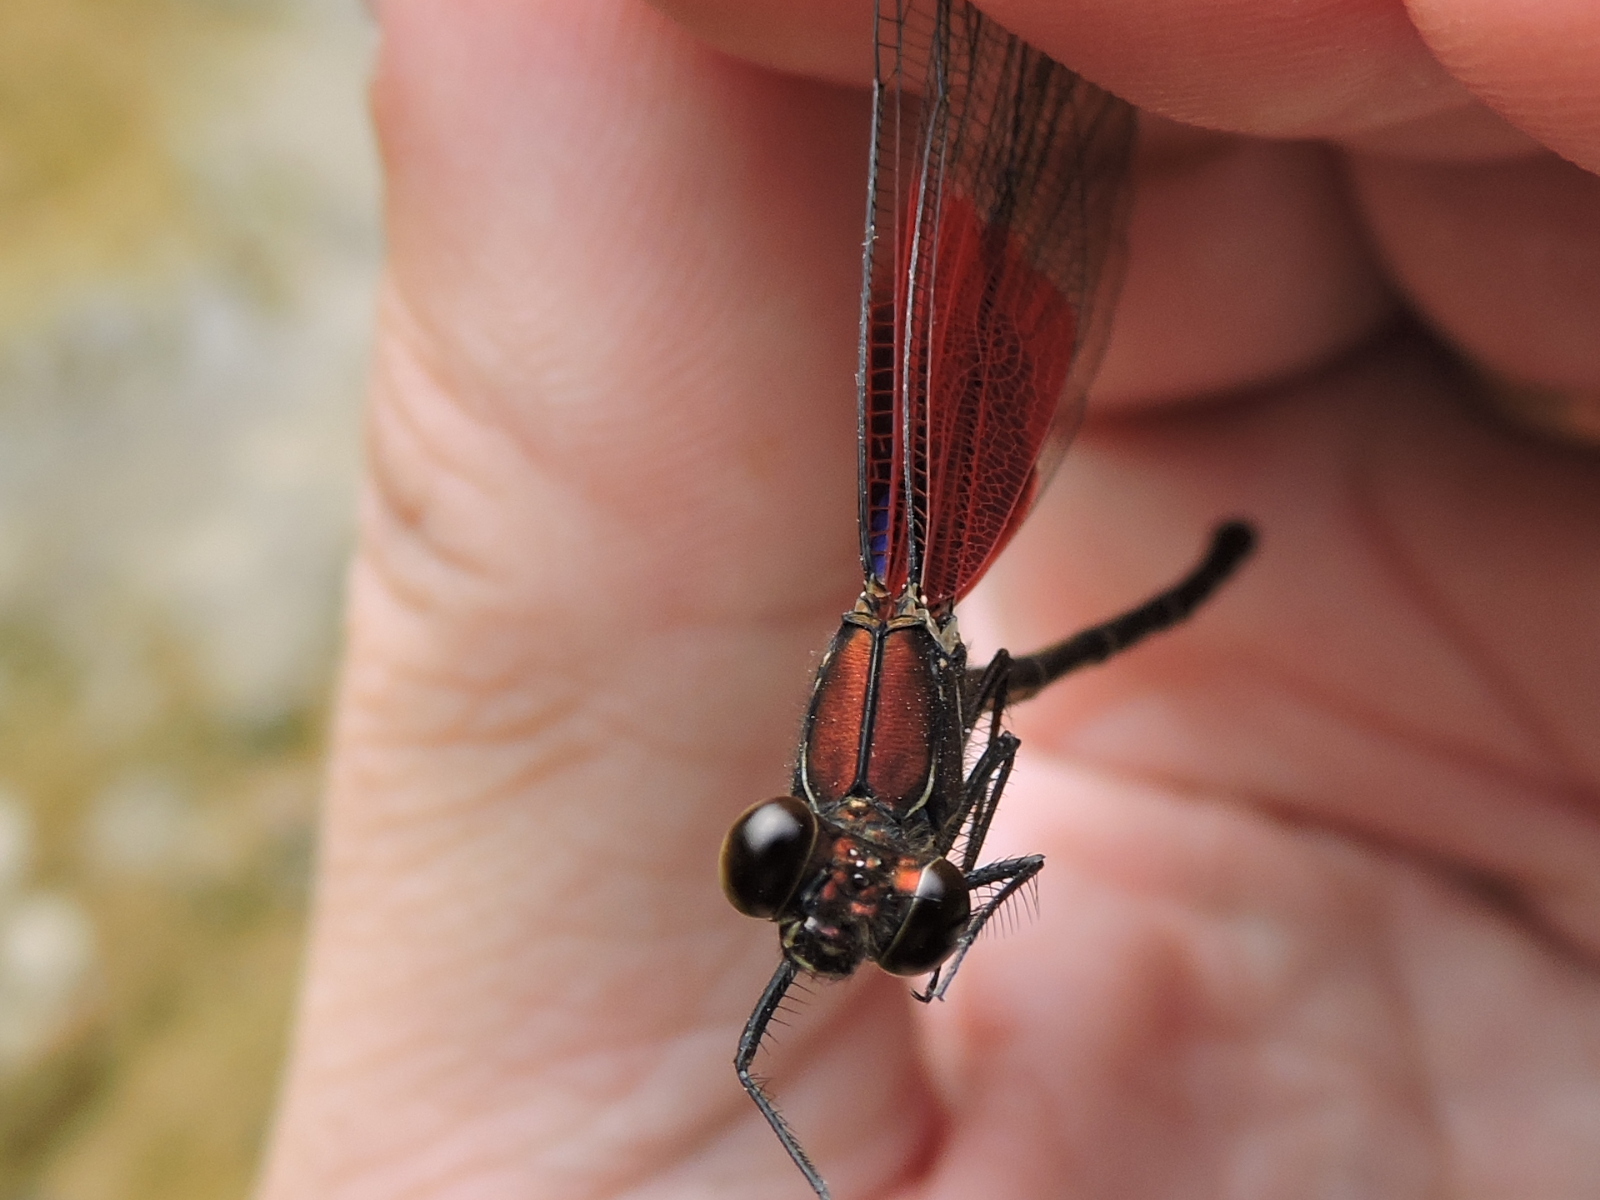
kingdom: Animalia
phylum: Arthropoda
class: Insecta
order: Odonata
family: Calopterygidae
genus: Hetaerina
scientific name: Hetaerina americana
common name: American rubyspot
